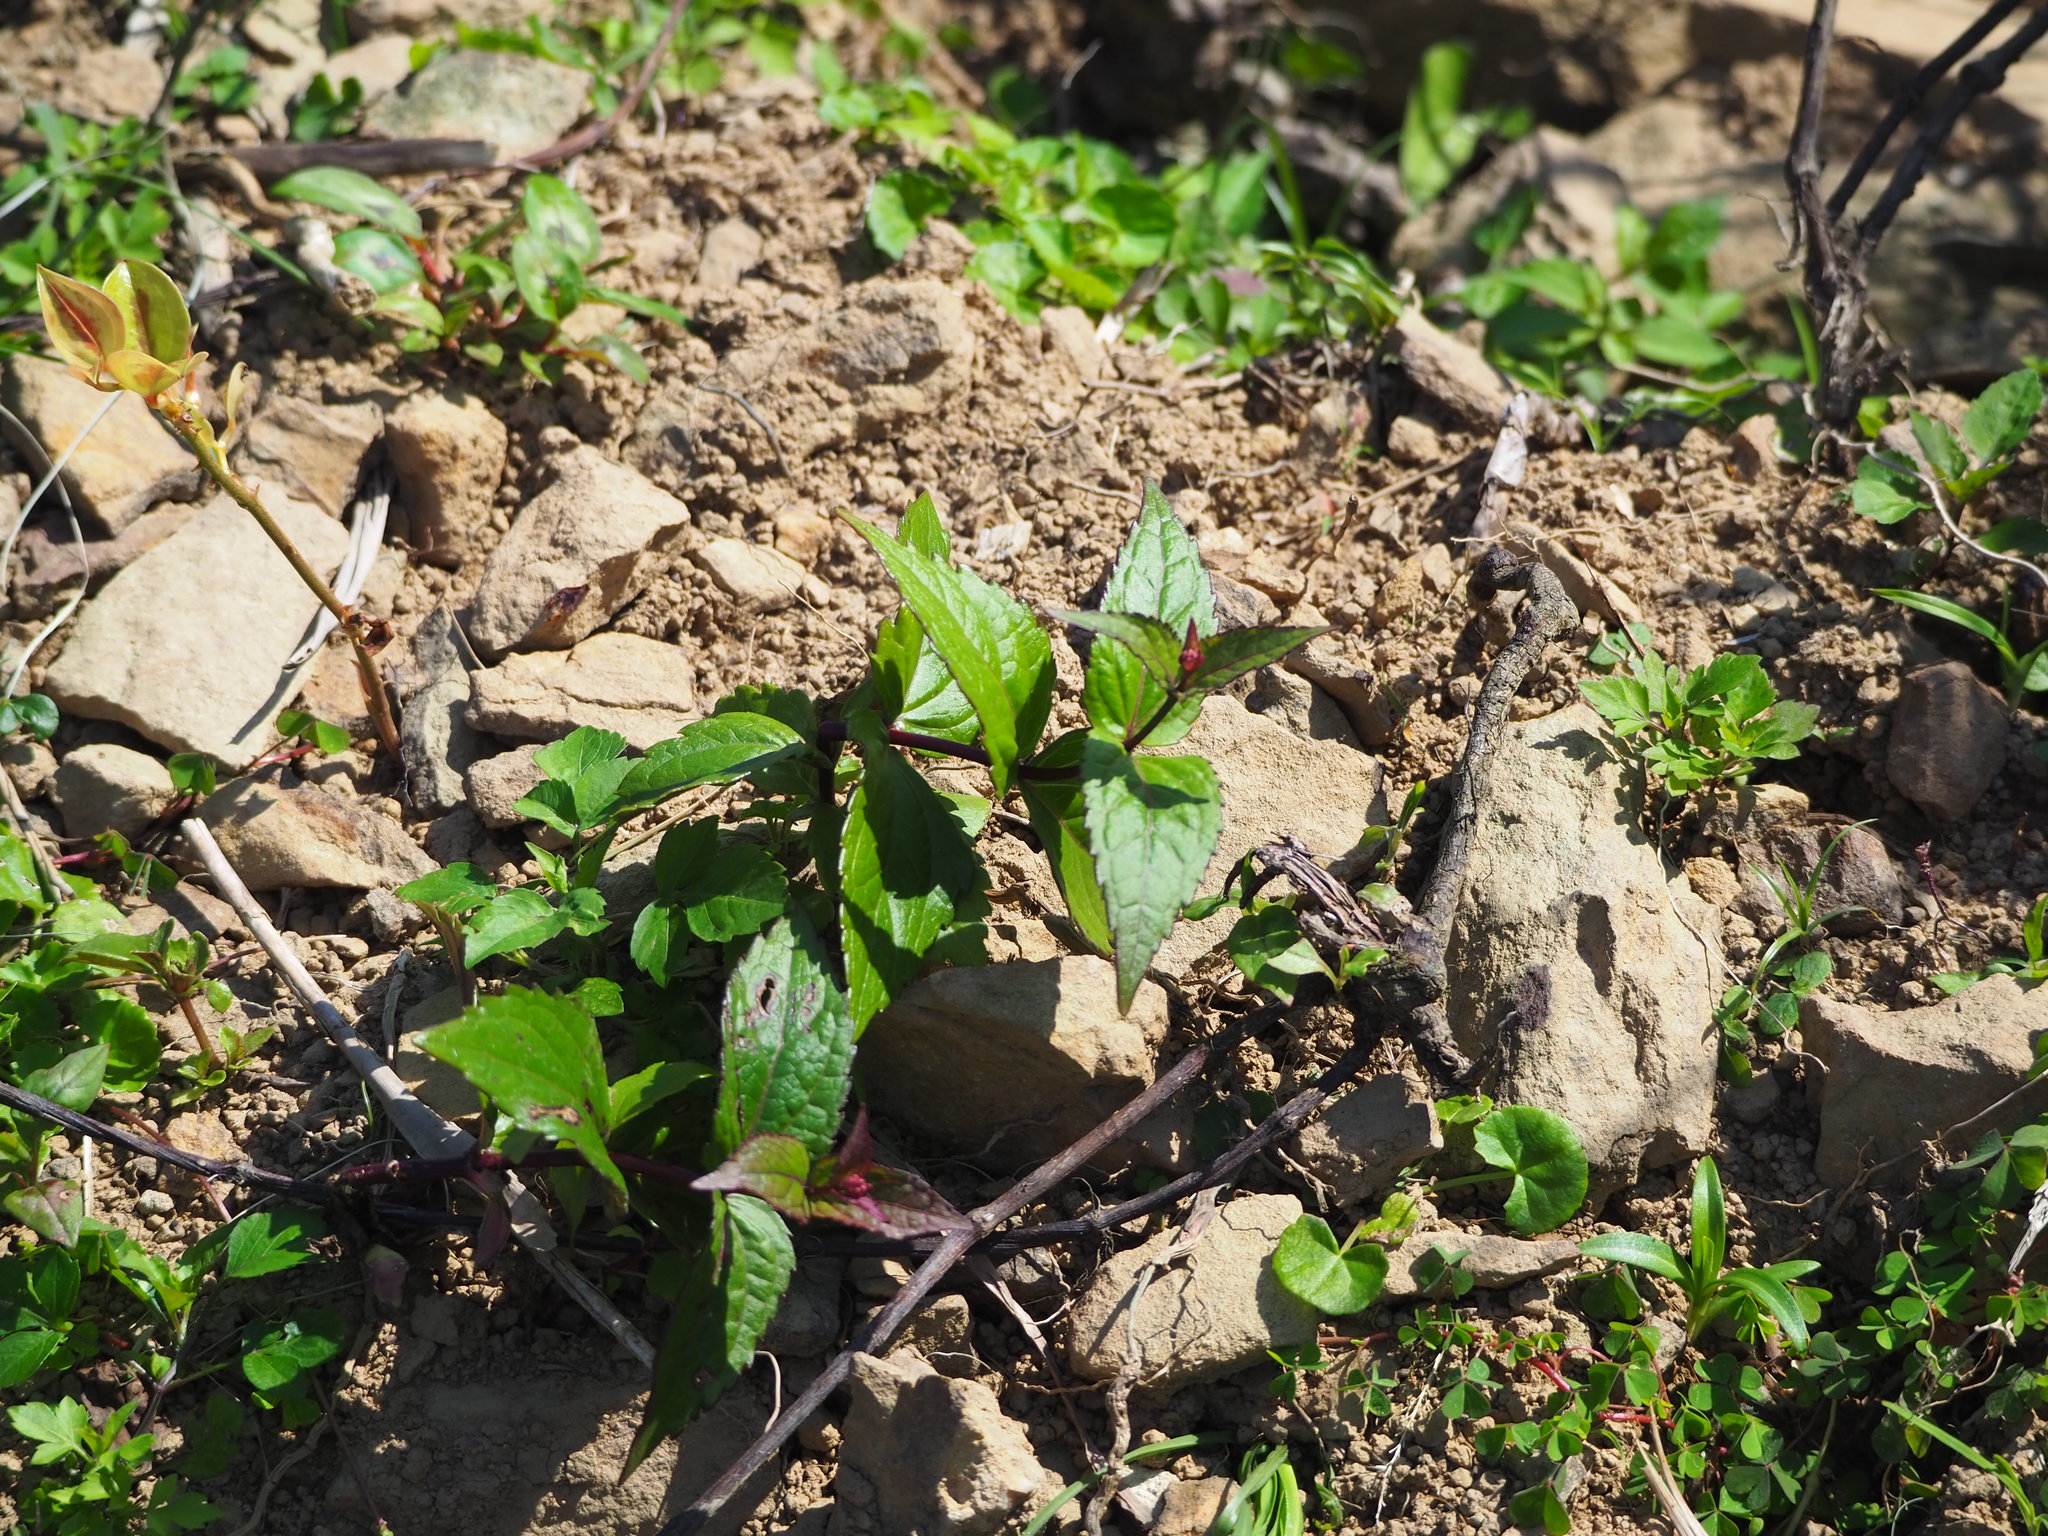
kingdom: Plantae
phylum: Tracheophyta
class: Magnoliopsida
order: Asterales
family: Asteraceae
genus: Eupatorium
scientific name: Eupatorium shimadae
